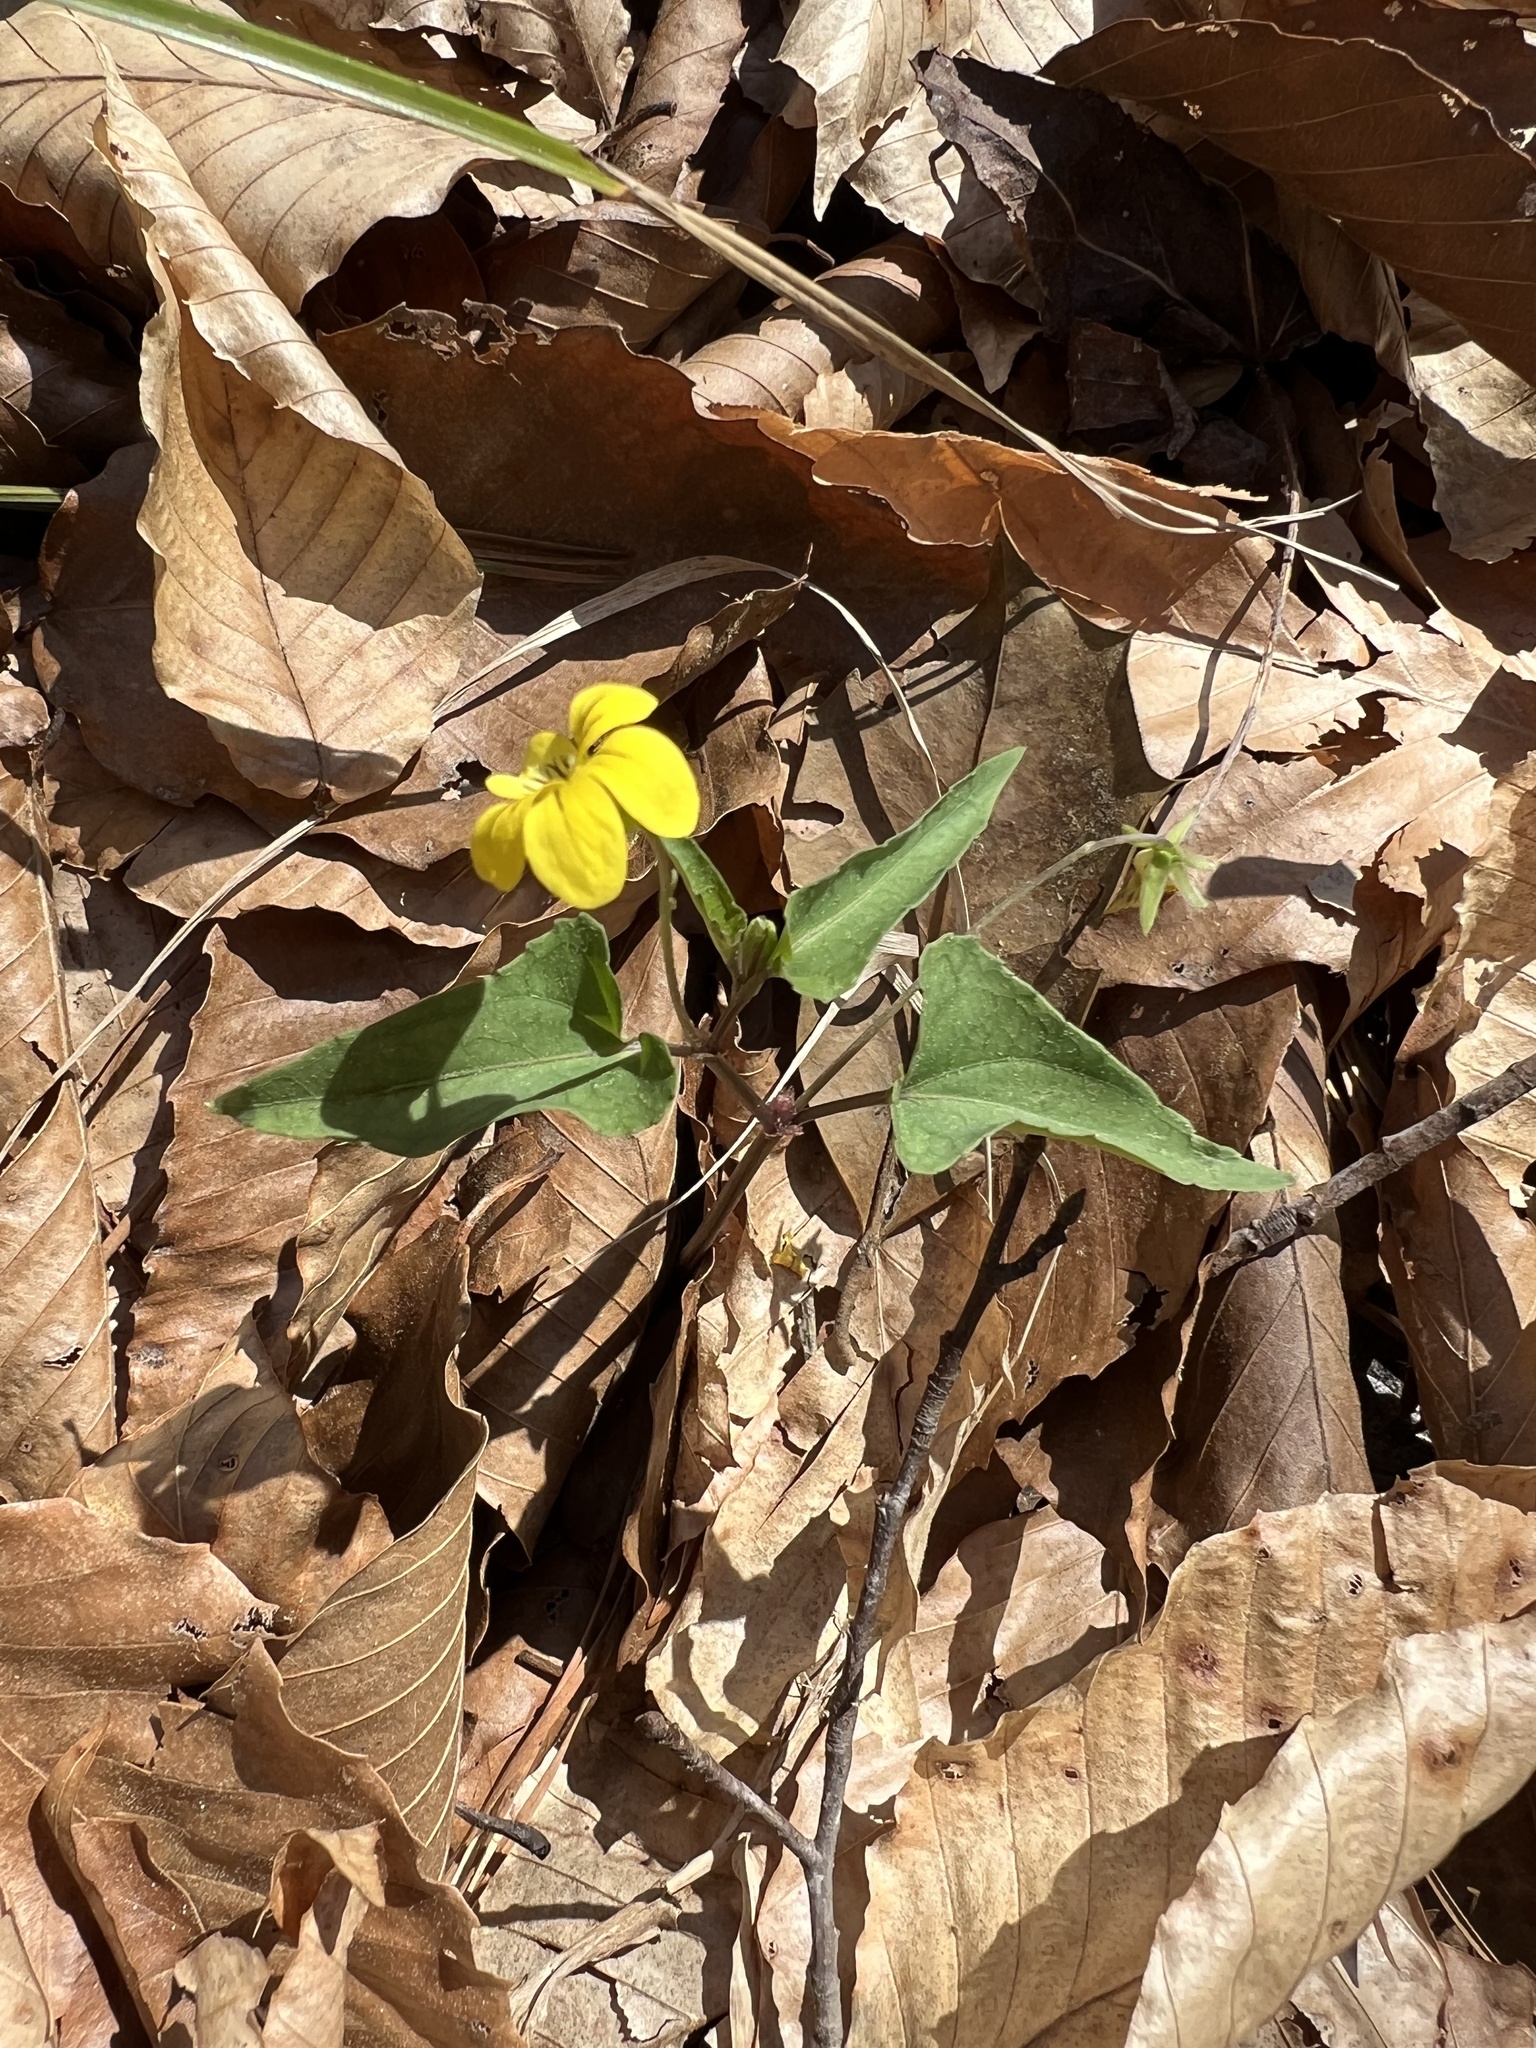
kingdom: Plantae
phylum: Tracheophyta
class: Magnoliopsida
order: Malpighiales
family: Violaceae
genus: Viola
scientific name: Viola hastata
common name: Spear-leaf violet
